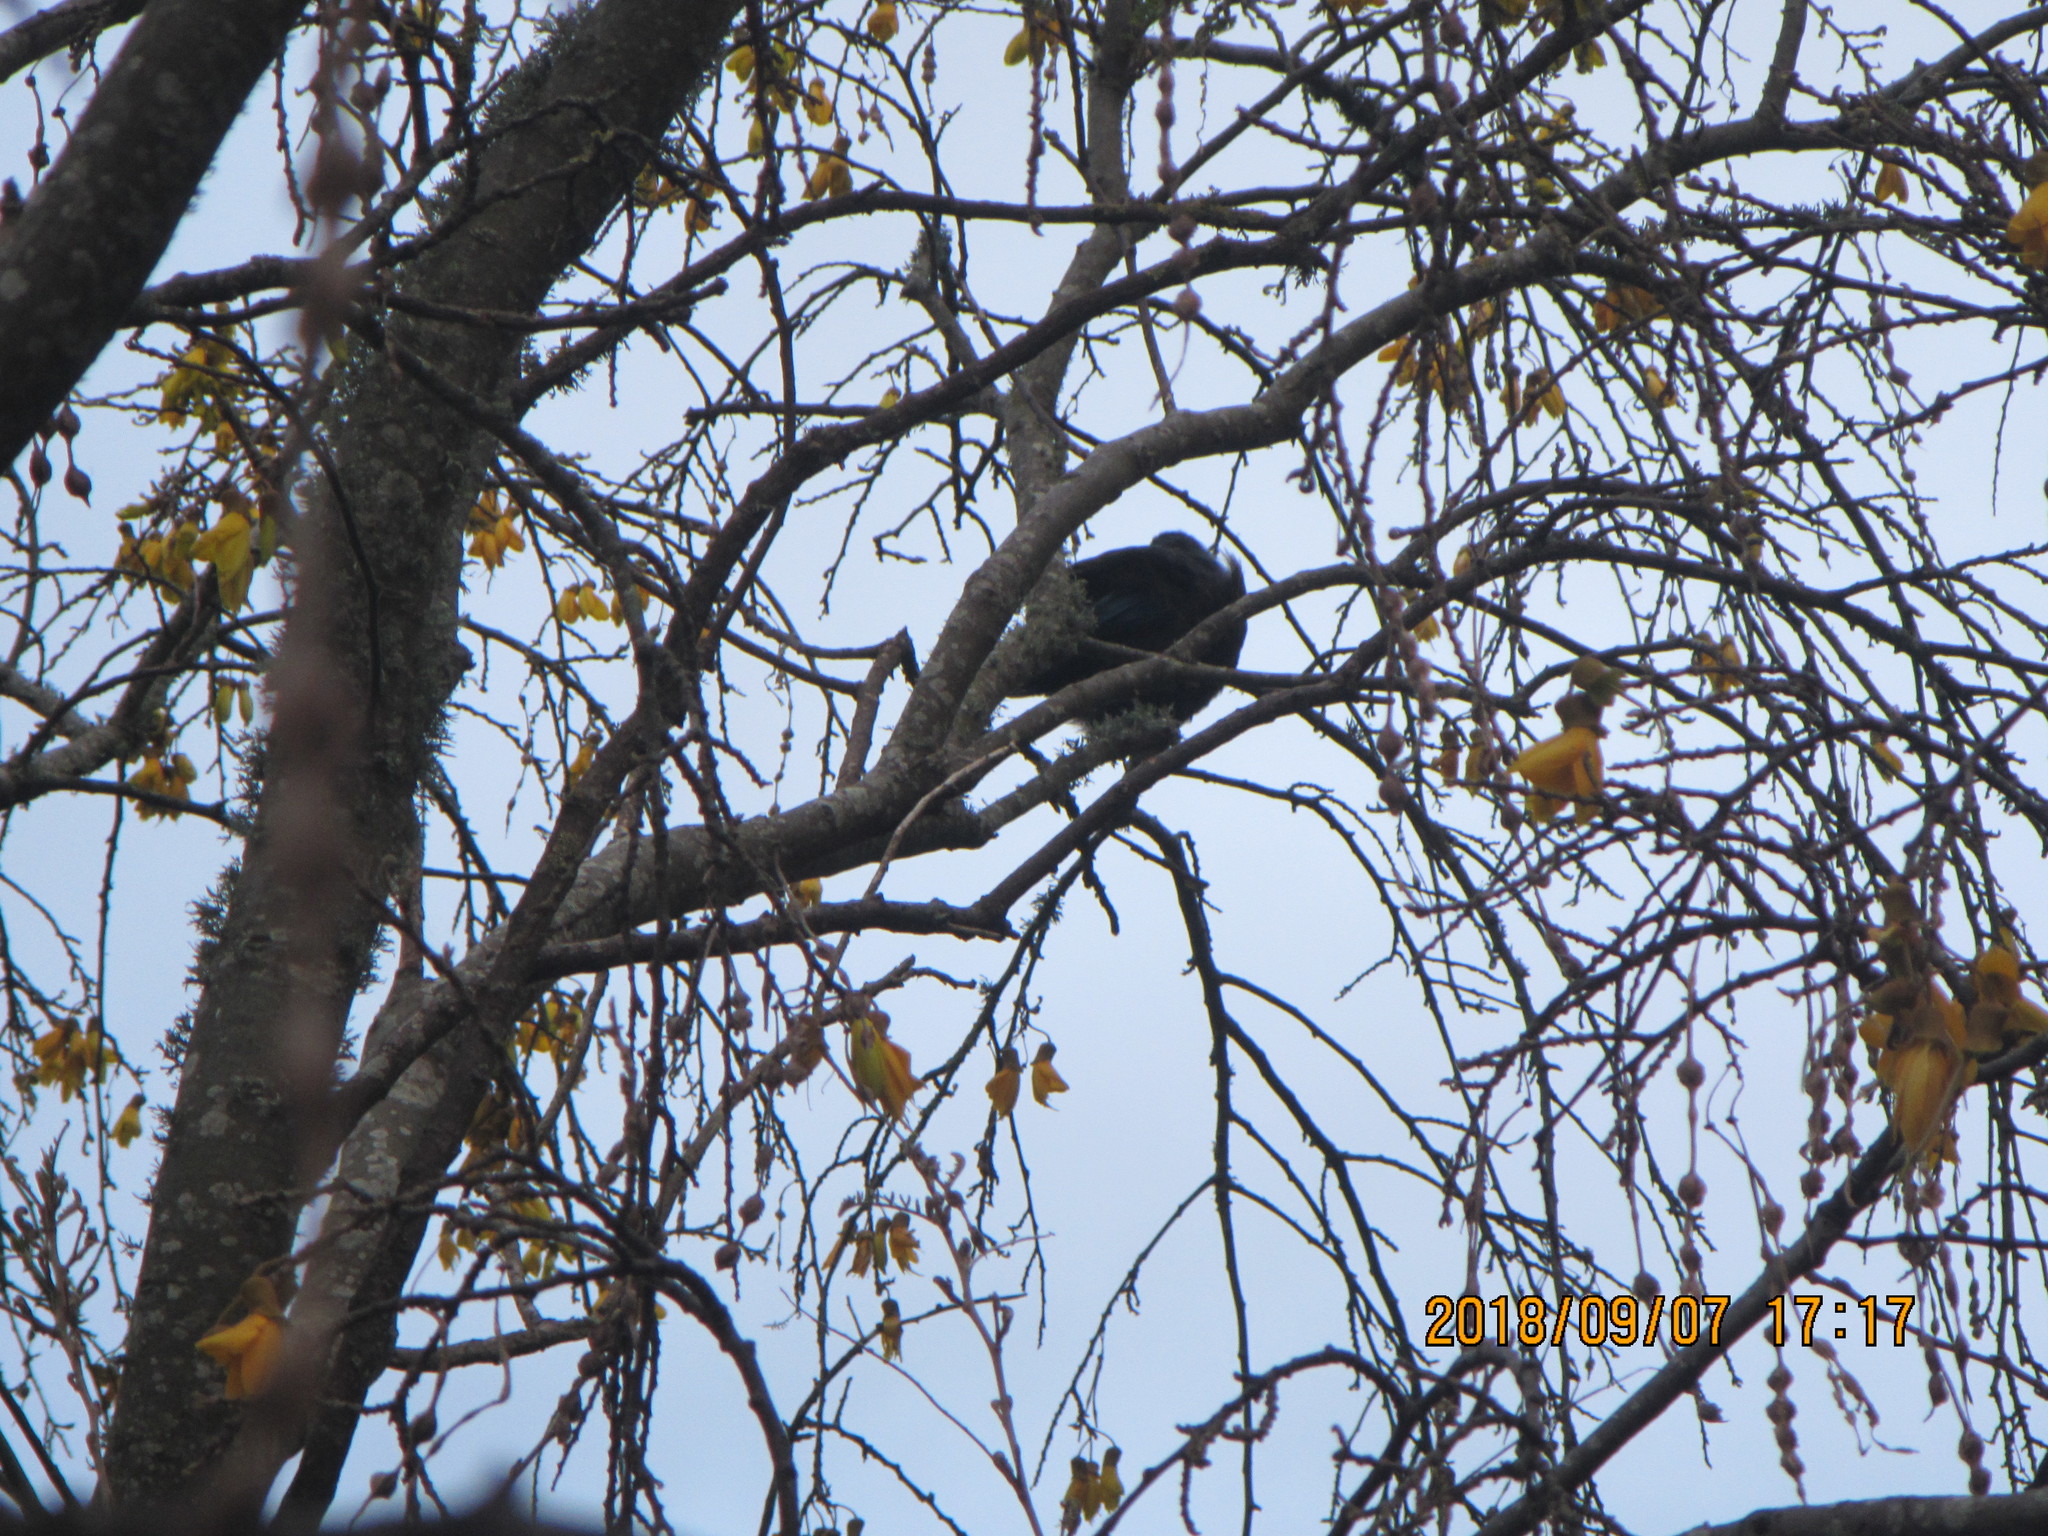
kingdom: Animalia
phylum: Chordata
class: Aves
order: Passeriformes
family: Meliphagidae
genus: Prosthemadera
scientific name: Prosthemadera novaeseelandiae
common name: Tui
